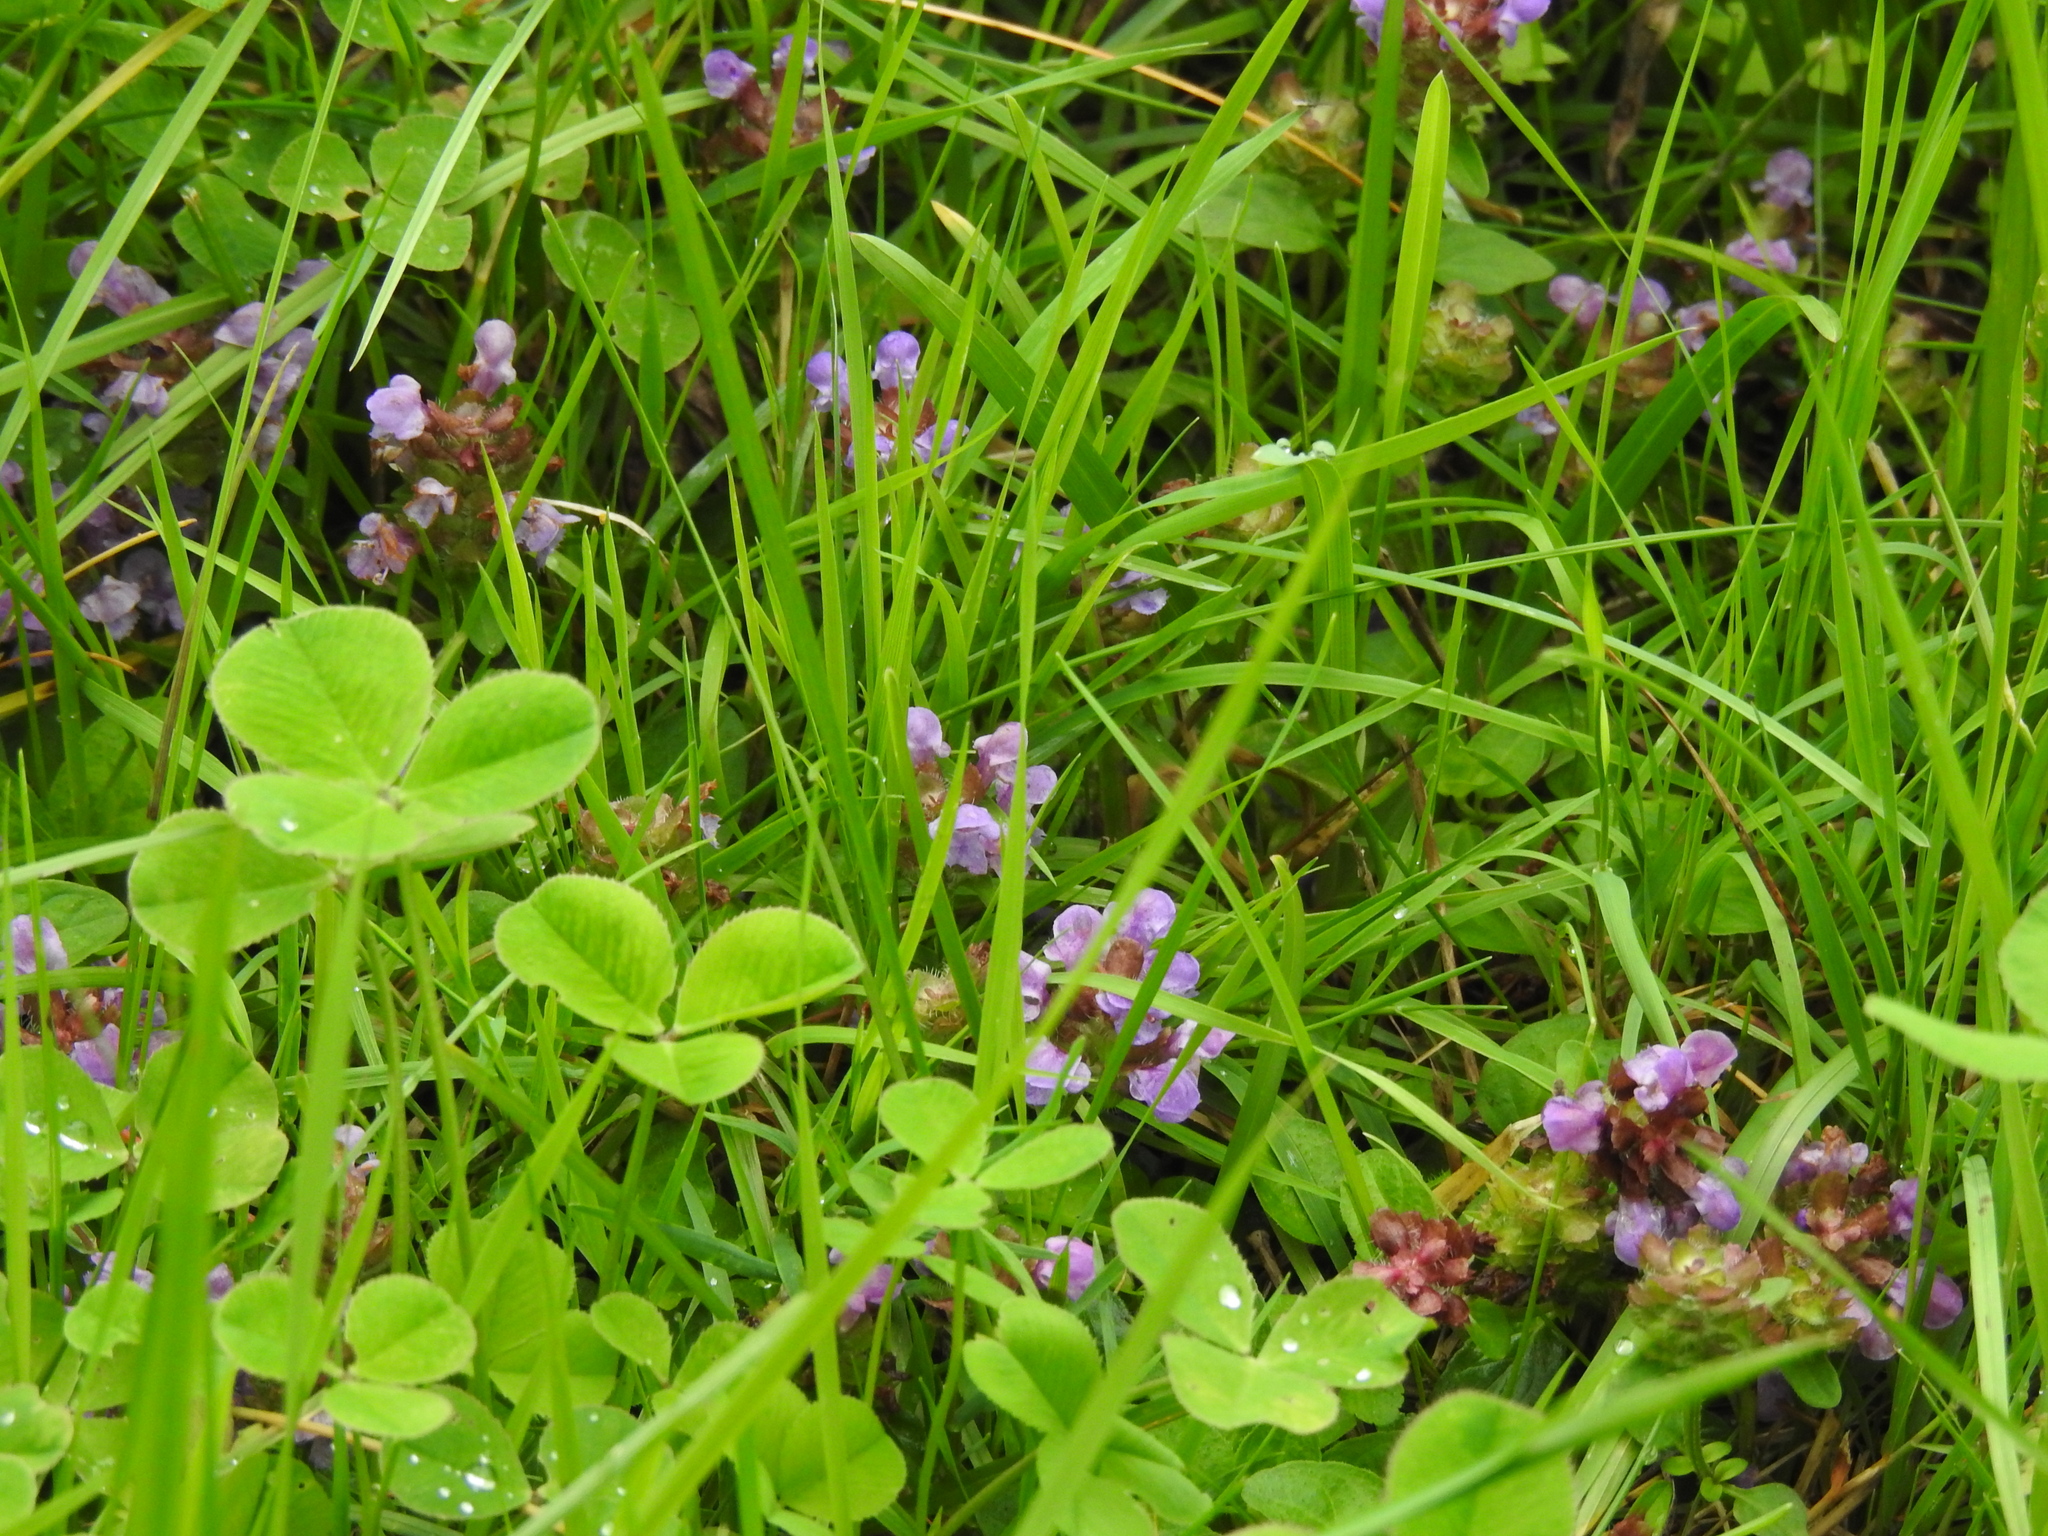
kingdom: Plantae
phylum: Tracheophyta
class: Magnoliopsida
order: Lamiales
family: Lamiaceae
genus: Prunella
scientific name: Prunella vulgaris
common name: Heal-all
